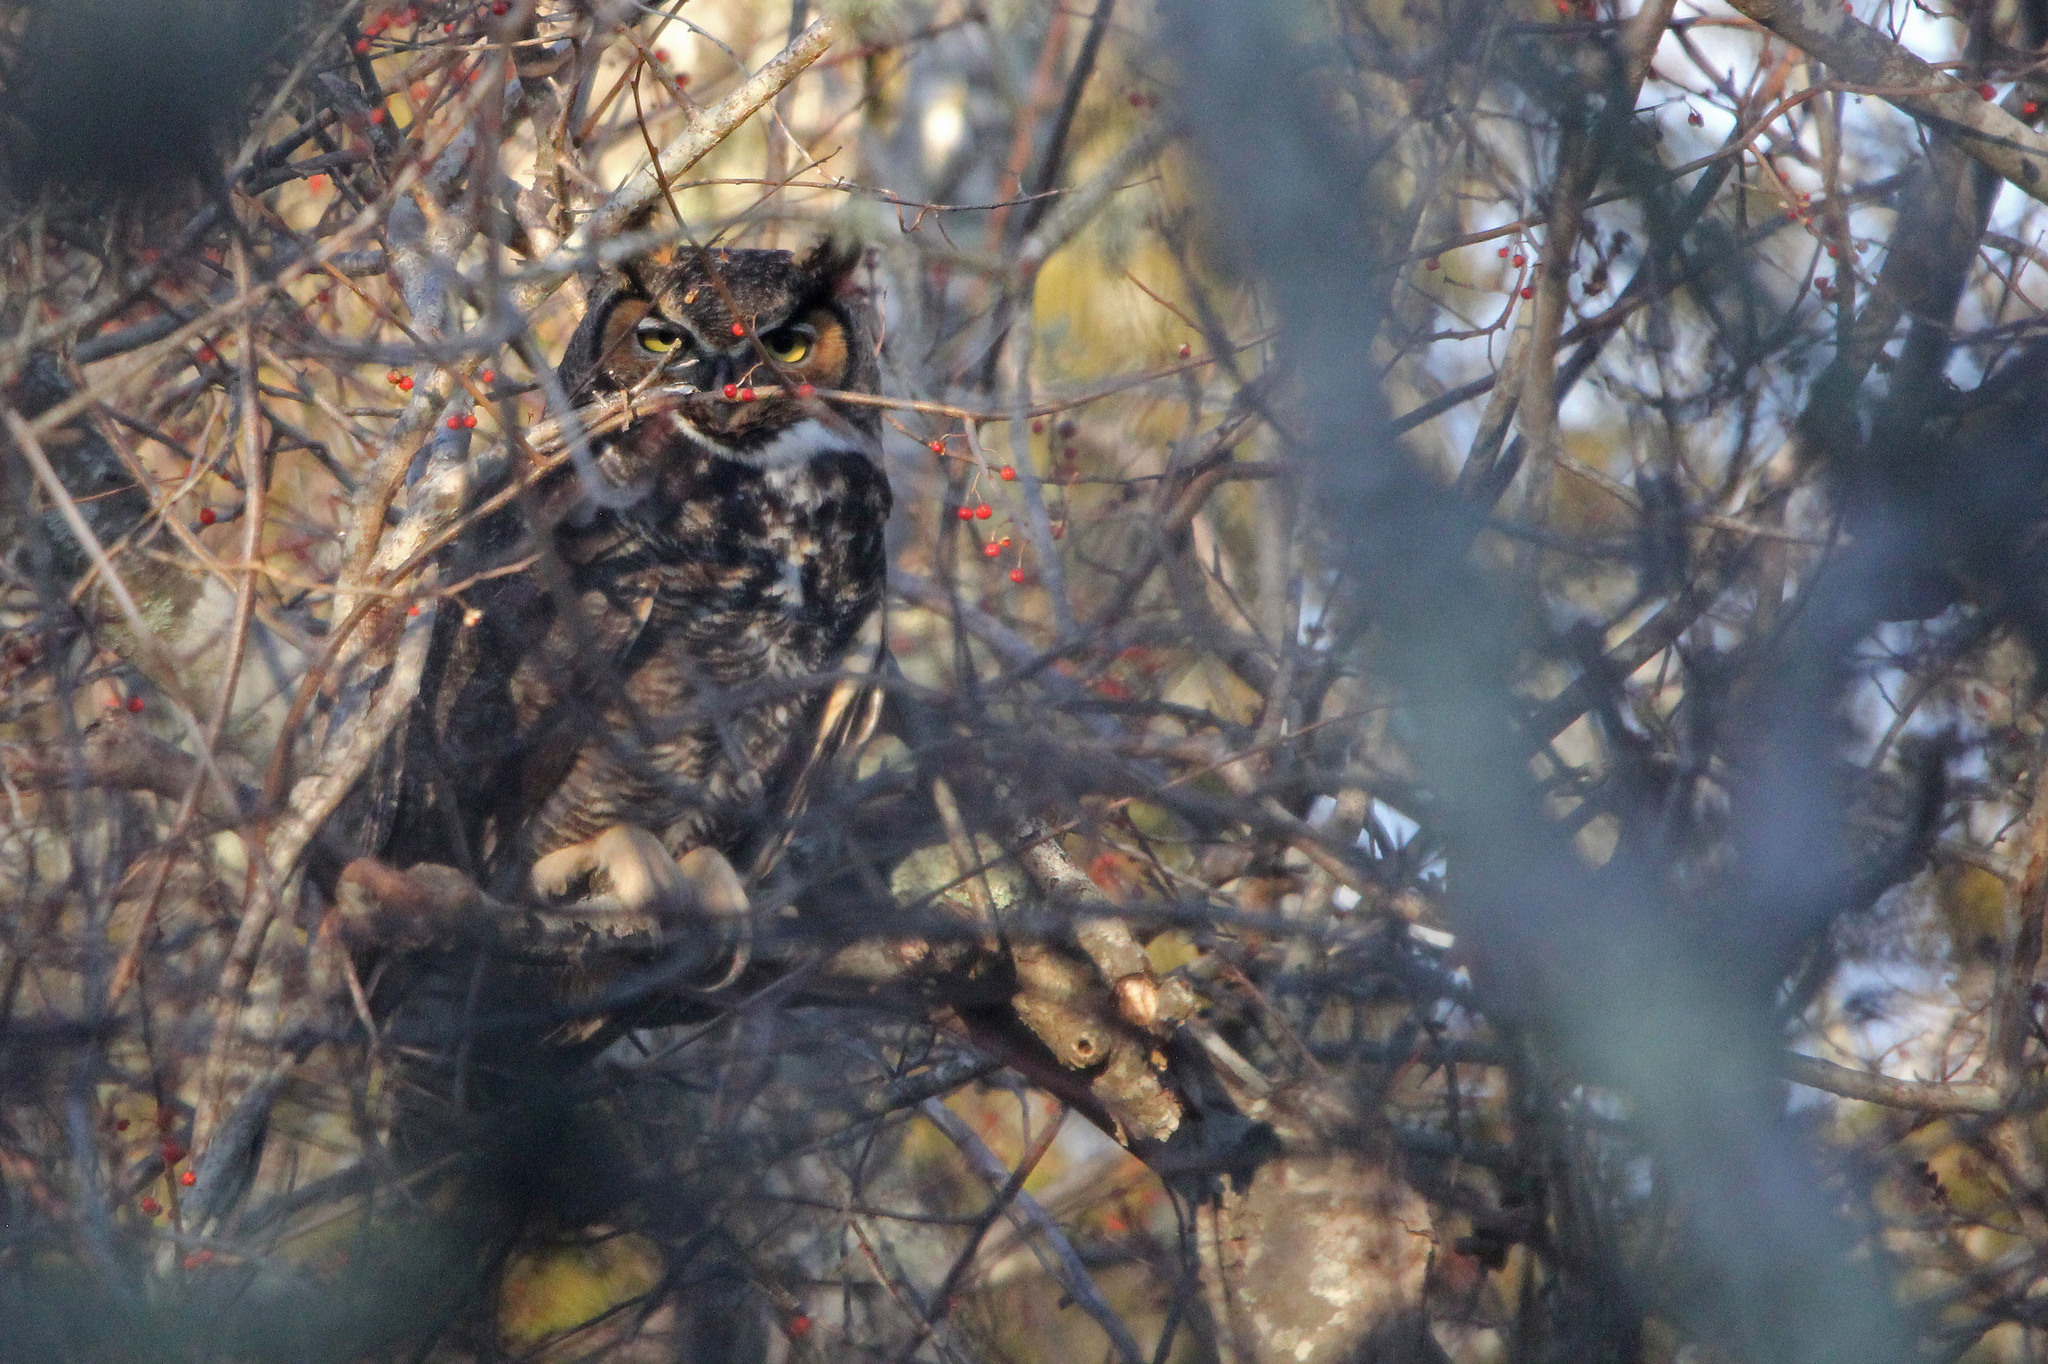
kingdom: Animalia
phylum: Chordata
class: Aves
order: Strigiformes
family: Strigidae
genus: Bubo
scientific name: Bubo virginianus
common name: Great horned owl
